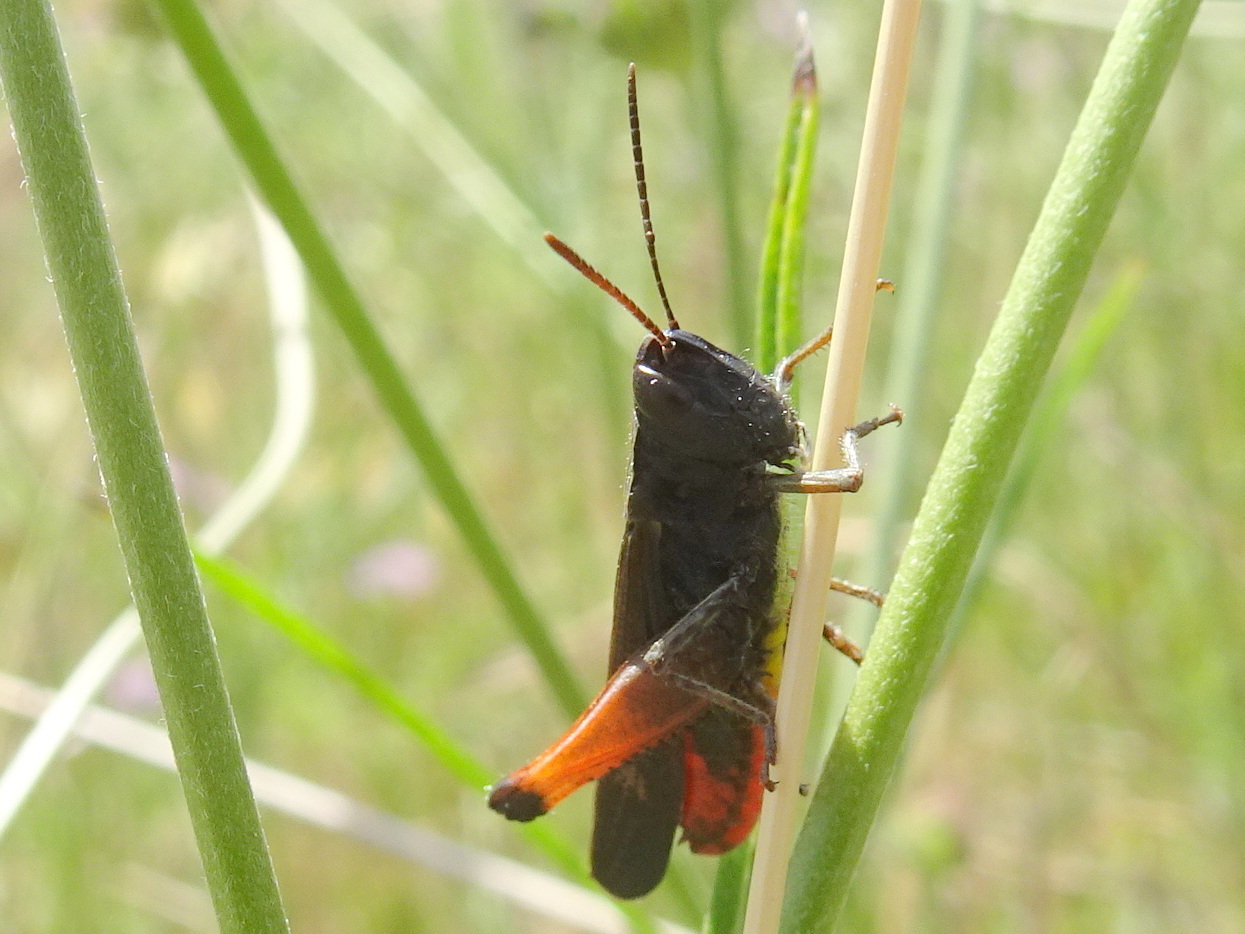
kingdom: Animalia
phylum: Arthropoda
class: Insecta
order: Orthoptera
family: Acrididae
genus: Omocestus
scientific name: Omocestus rufipes
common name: Woodland grasshopper
